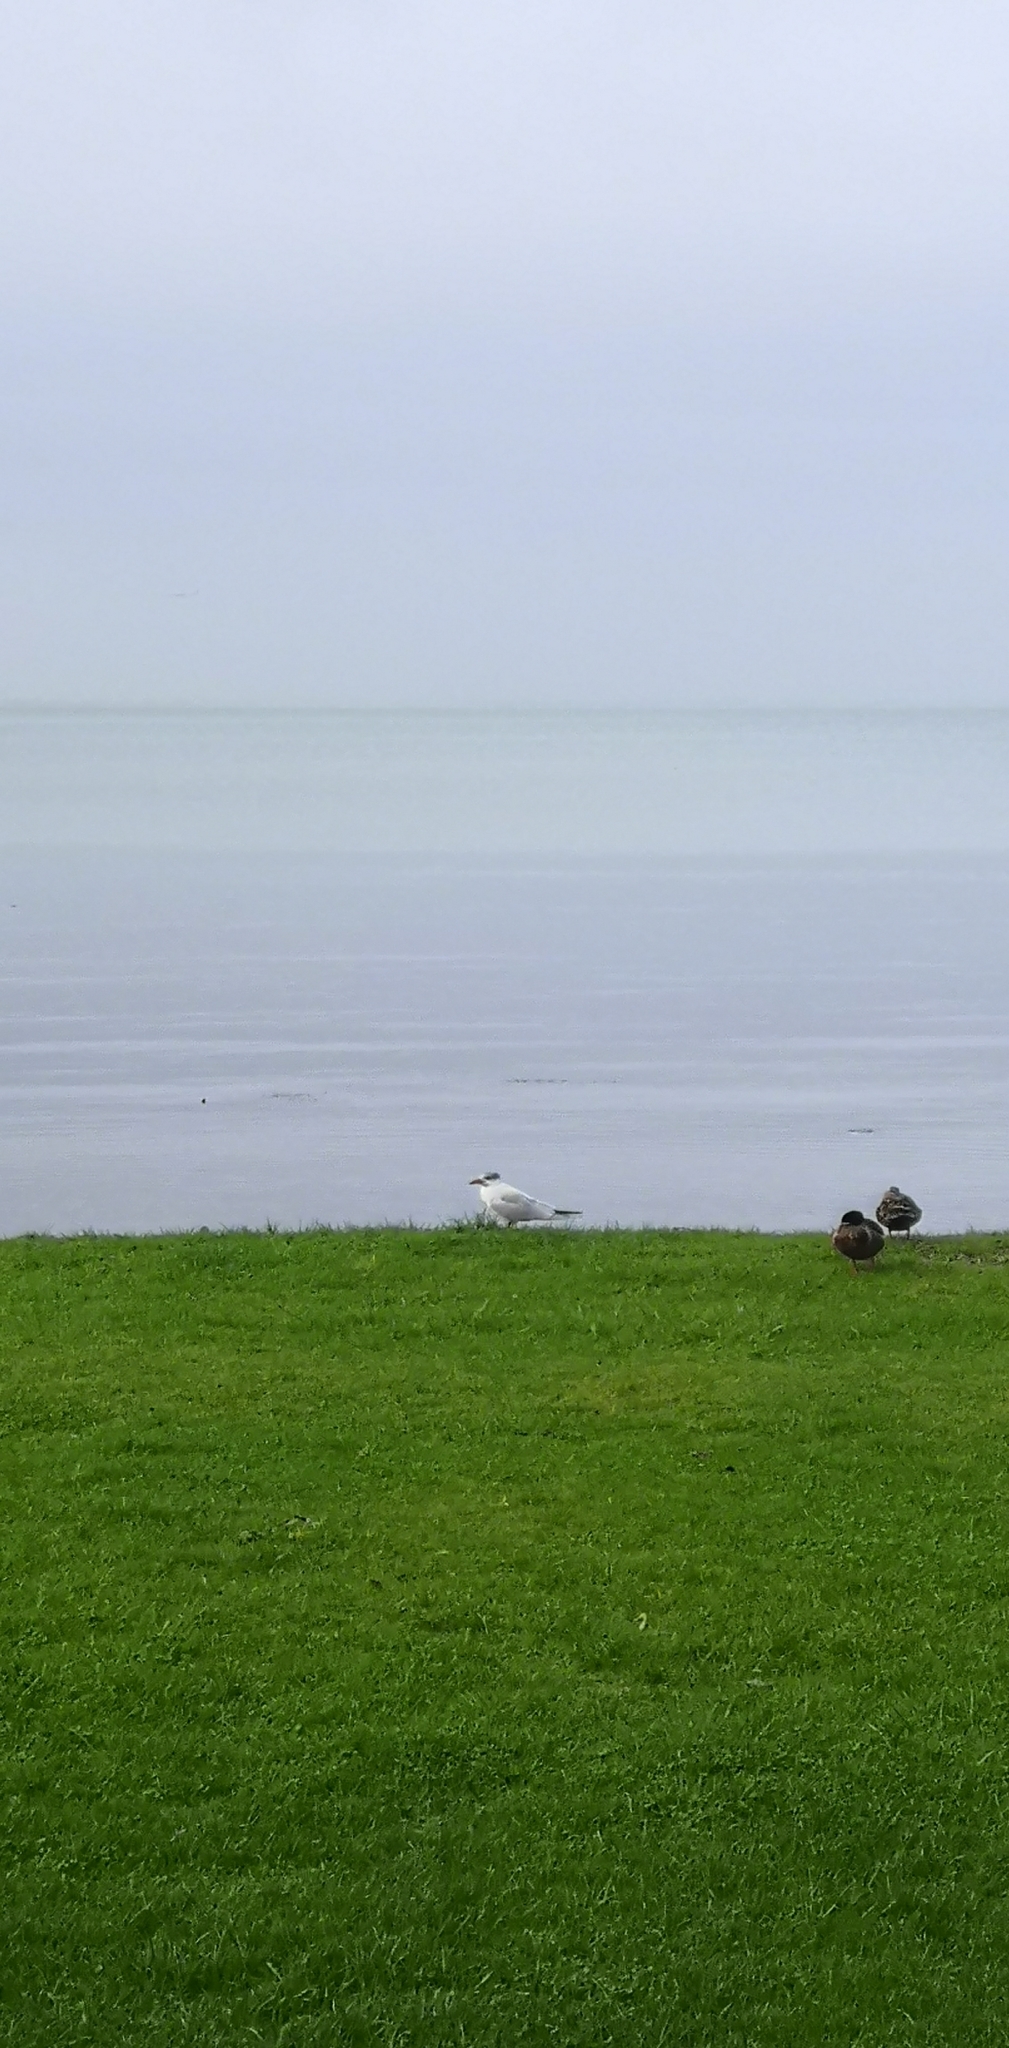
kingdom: Animalia
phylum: Chordata
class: Aves
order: Charadriiformes
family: Laridae
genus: Hydroprogne
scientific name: Hydroprogne caspia
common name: Caspian tern
